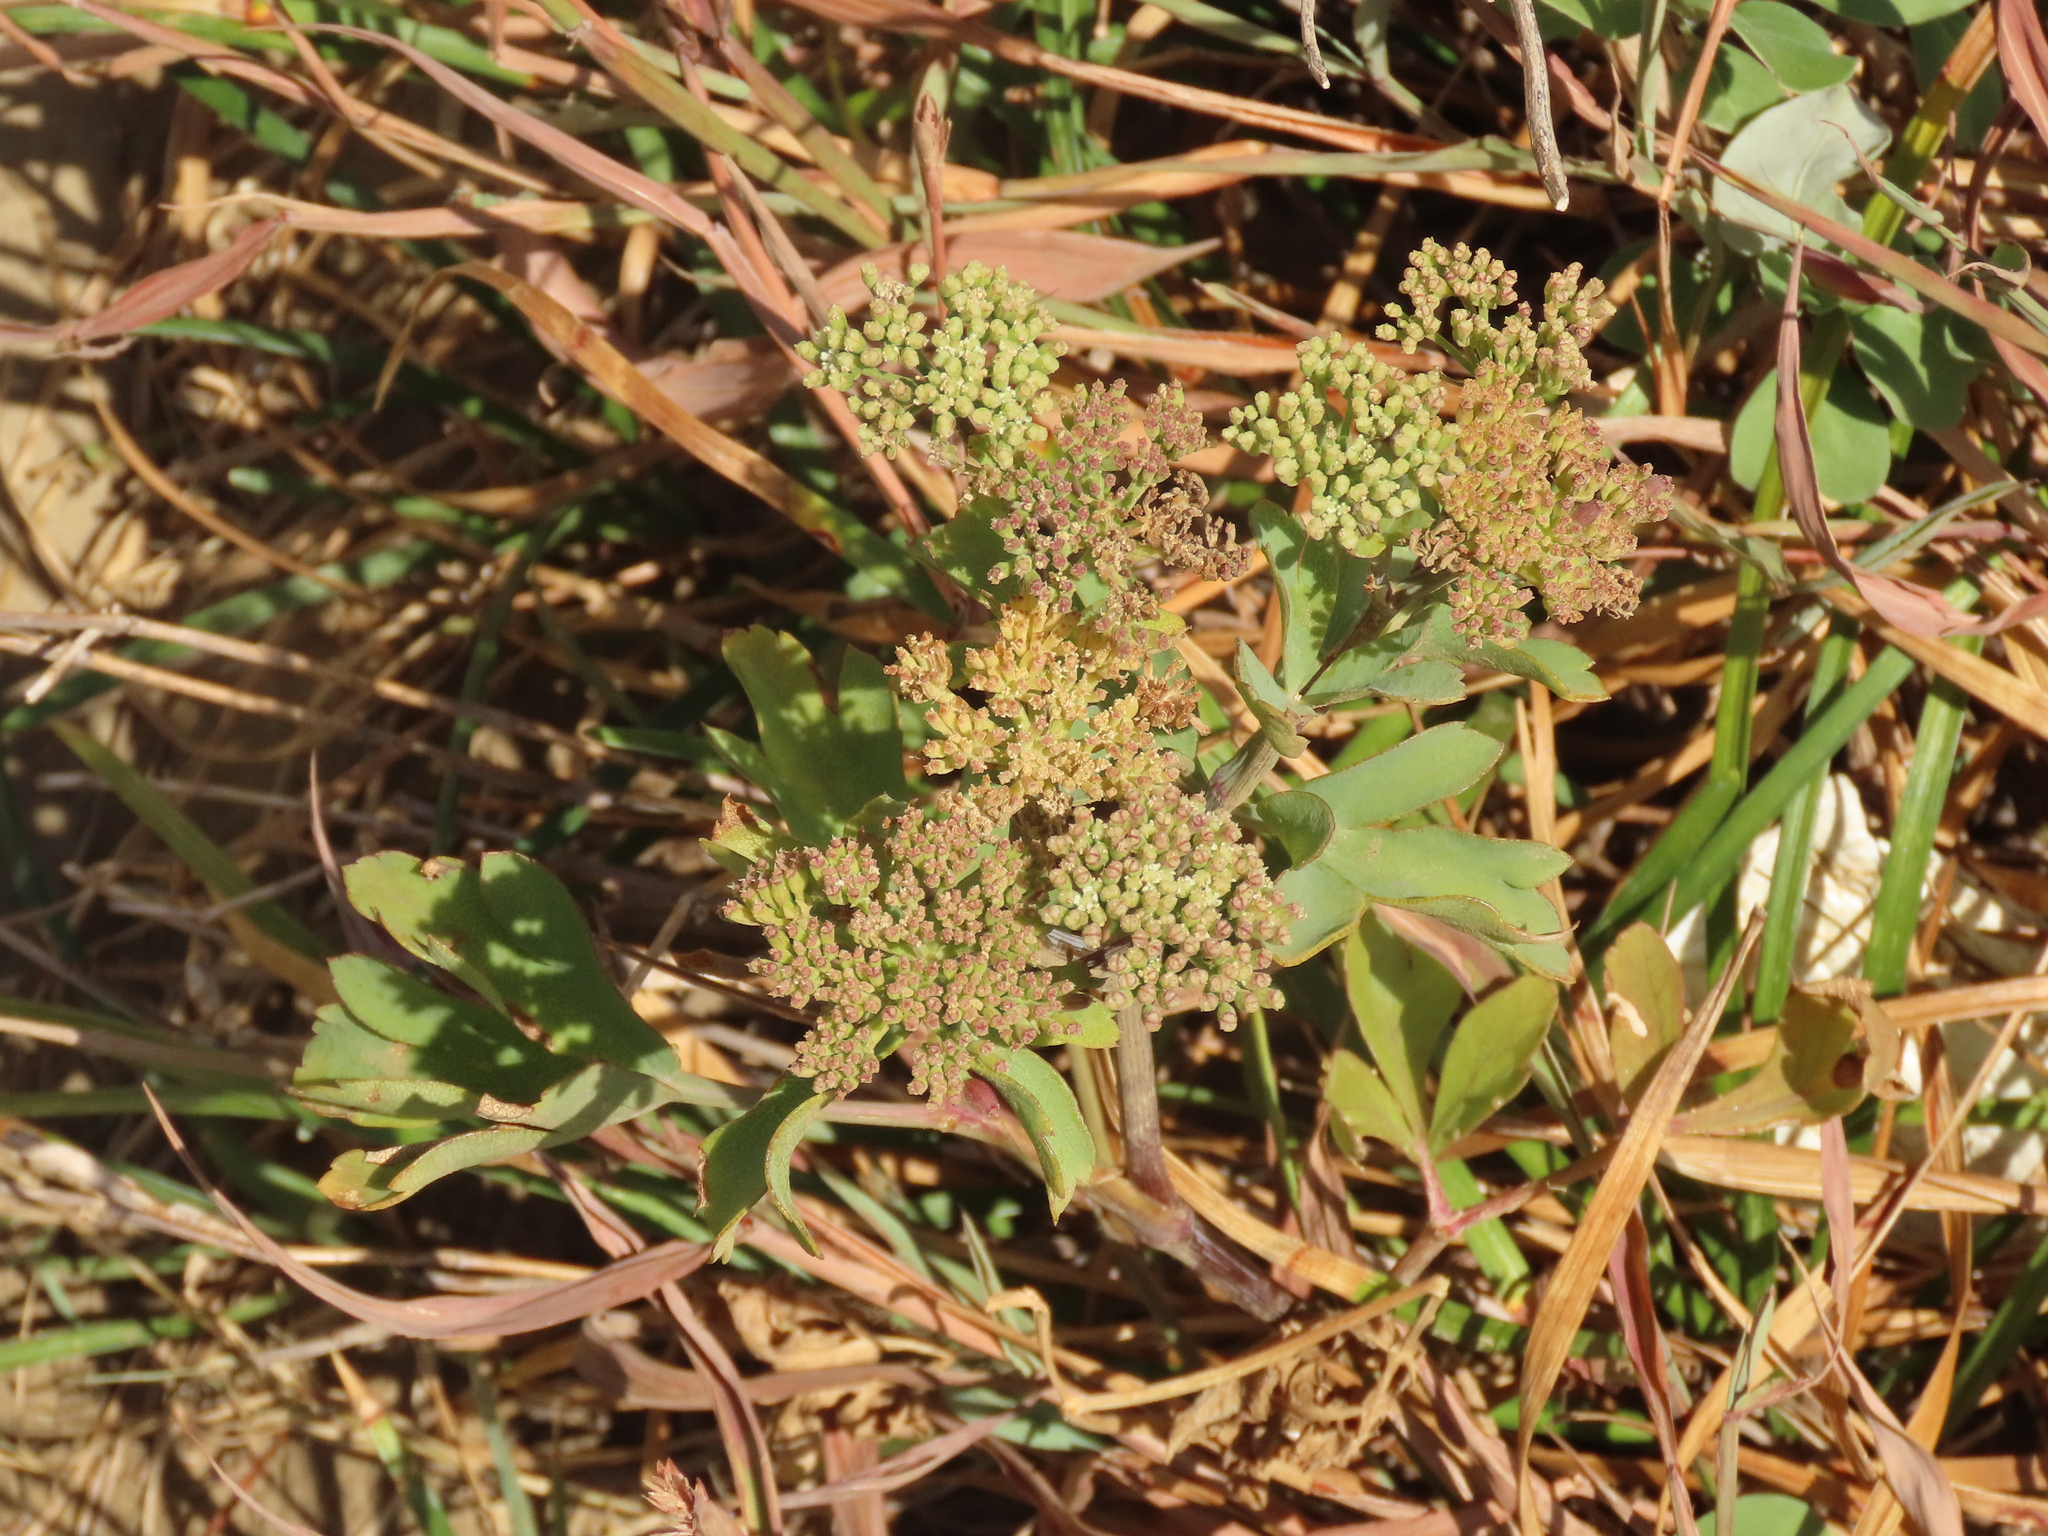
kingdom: Plantae
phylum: Tracheophyta
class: Magnoliopsida
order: Apiales
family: Apiaceae
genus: Peucedanum
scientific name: Peucedanum japonicum
